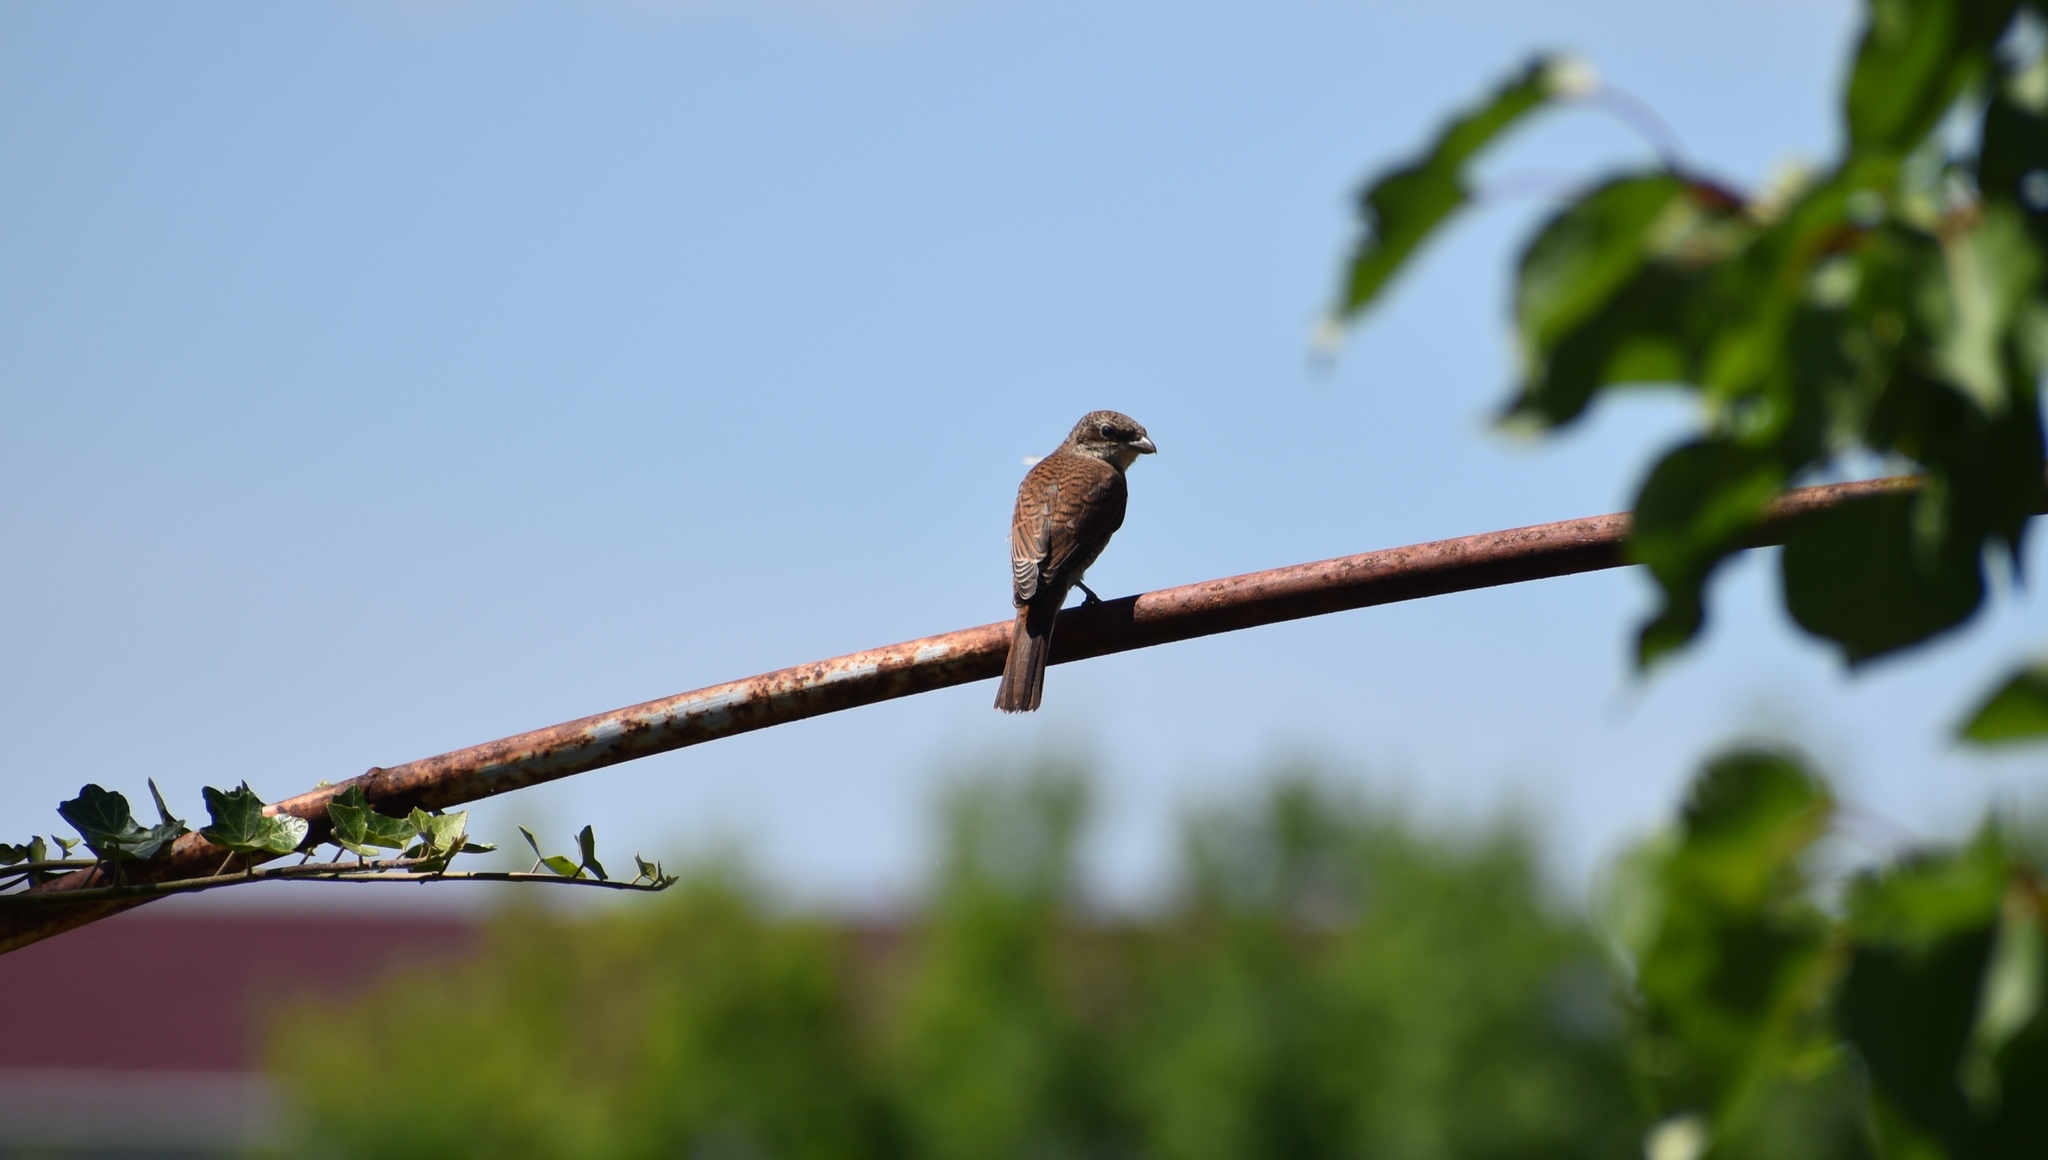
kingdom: Animalia
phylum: Chordata
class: Aves
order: Passeriformes
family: Laniidae
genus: Lanius
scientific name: Lanius collurio
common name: Red-backed shrike
